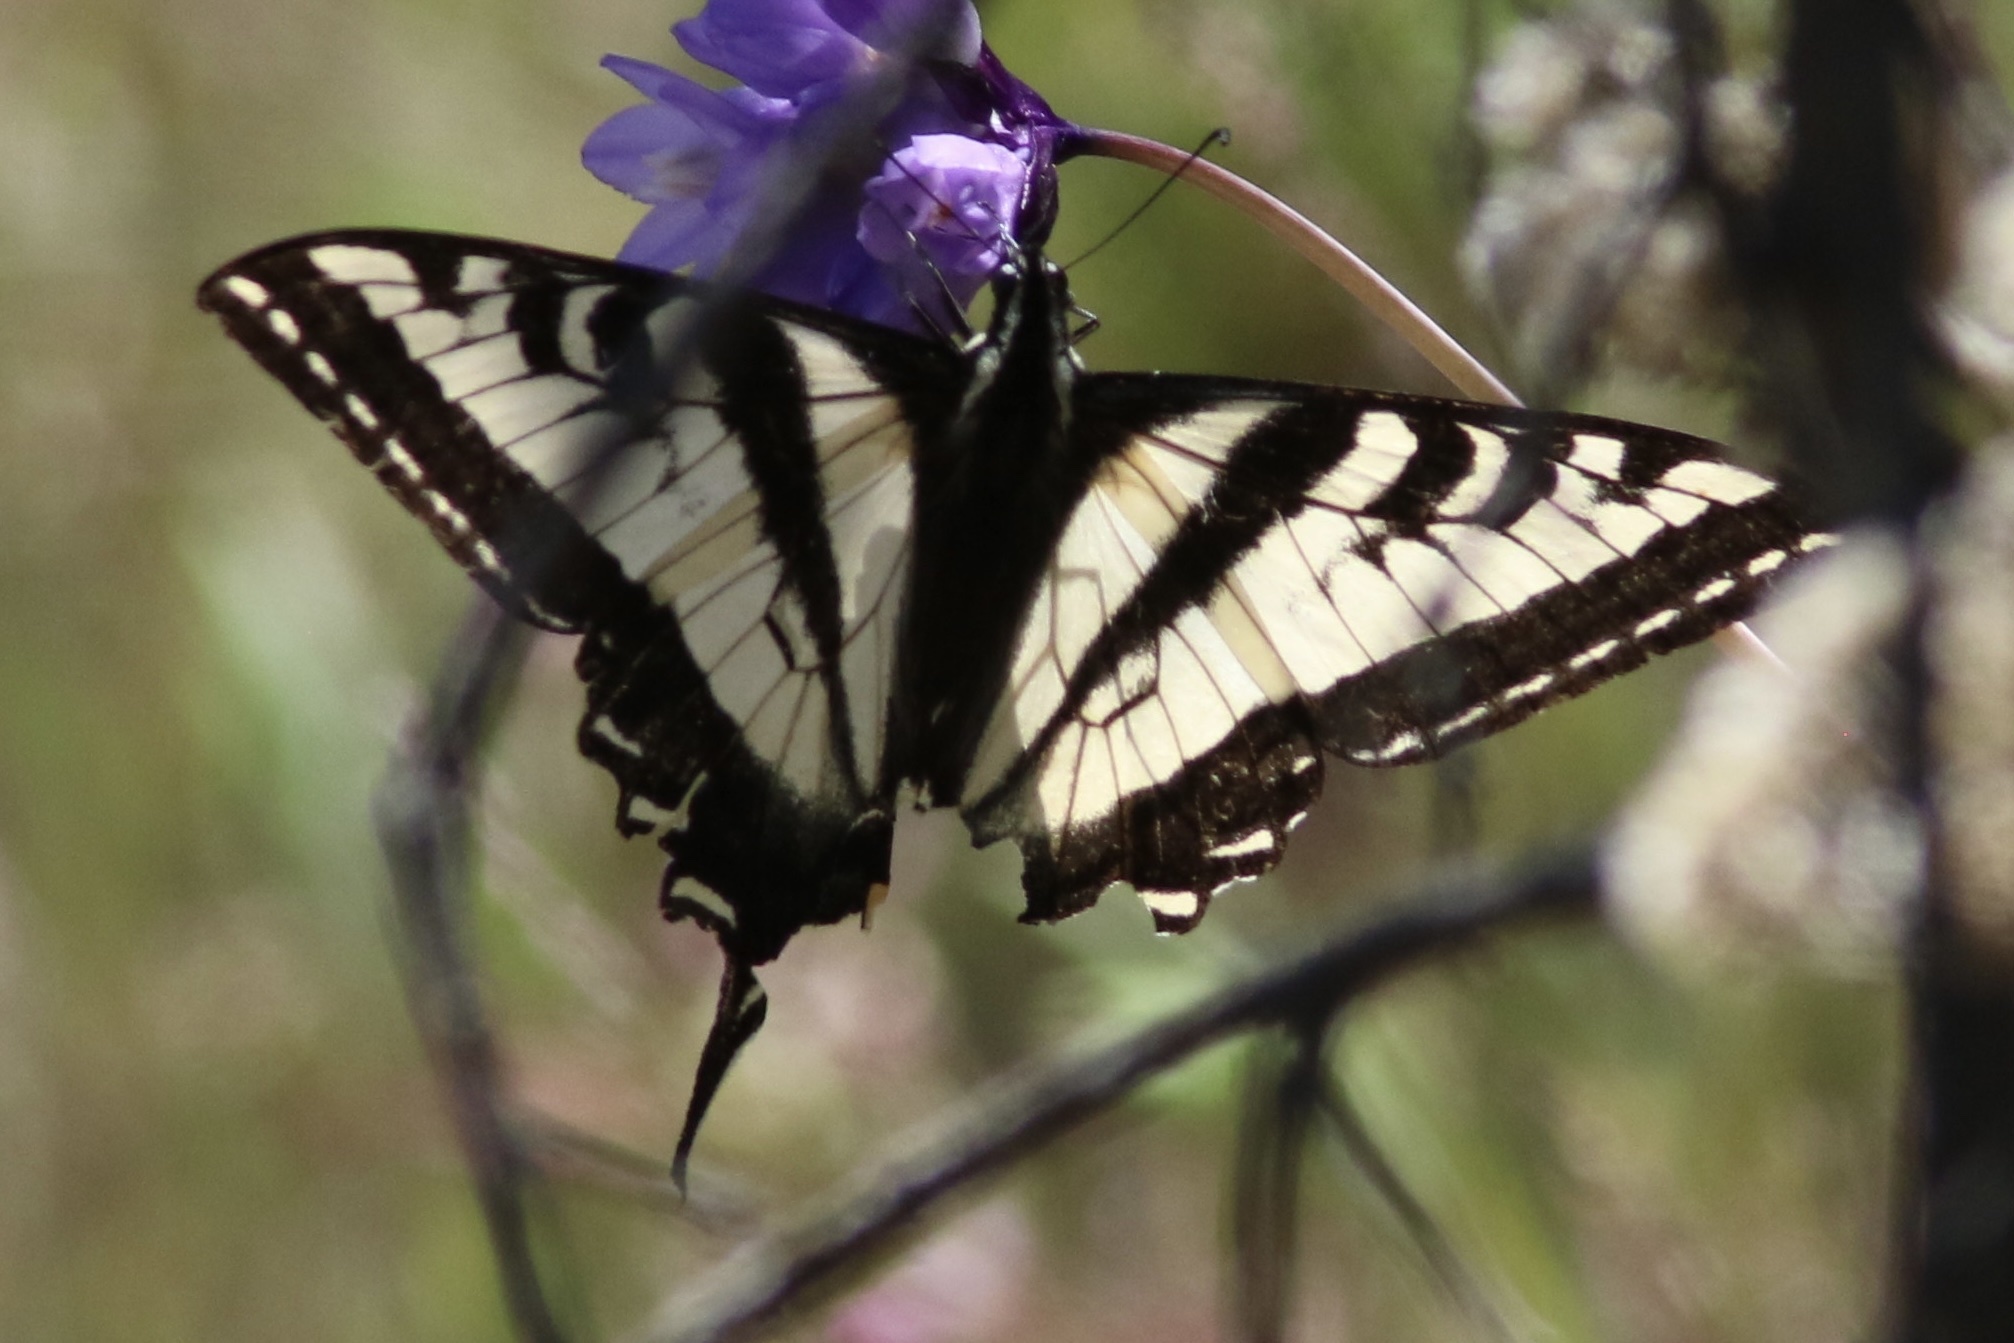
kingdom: Animalia
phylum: Arthropoda
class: Insecta
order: Lepidoptera
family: Papilionidae
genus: Papilio
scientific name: Papilio eurymedon
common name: Pale tiger swallowtail
